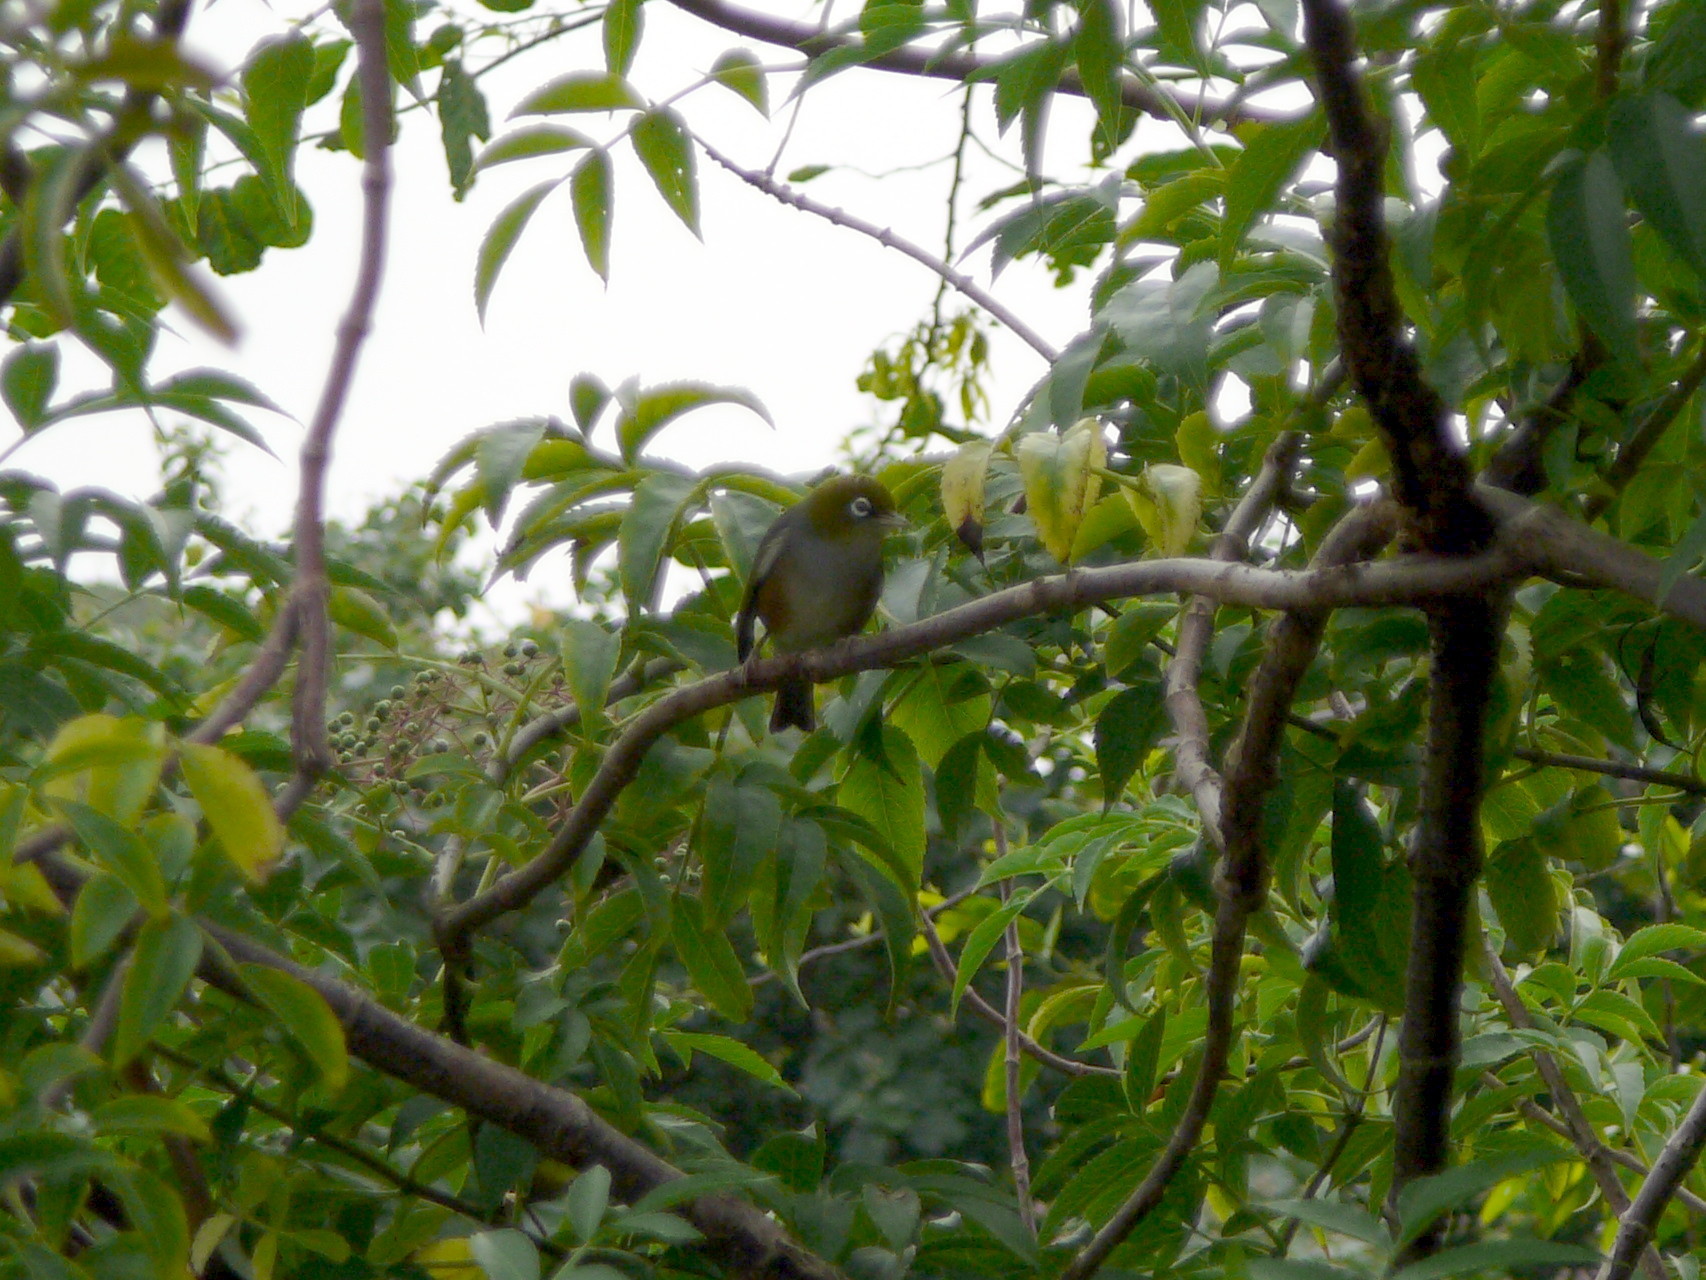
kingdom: Animalia
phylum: Chordata
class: Aves
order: Passeriformes
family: Zosteropidae
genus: Zosterops
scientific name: Zosterops lateralis
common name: Silvereye
